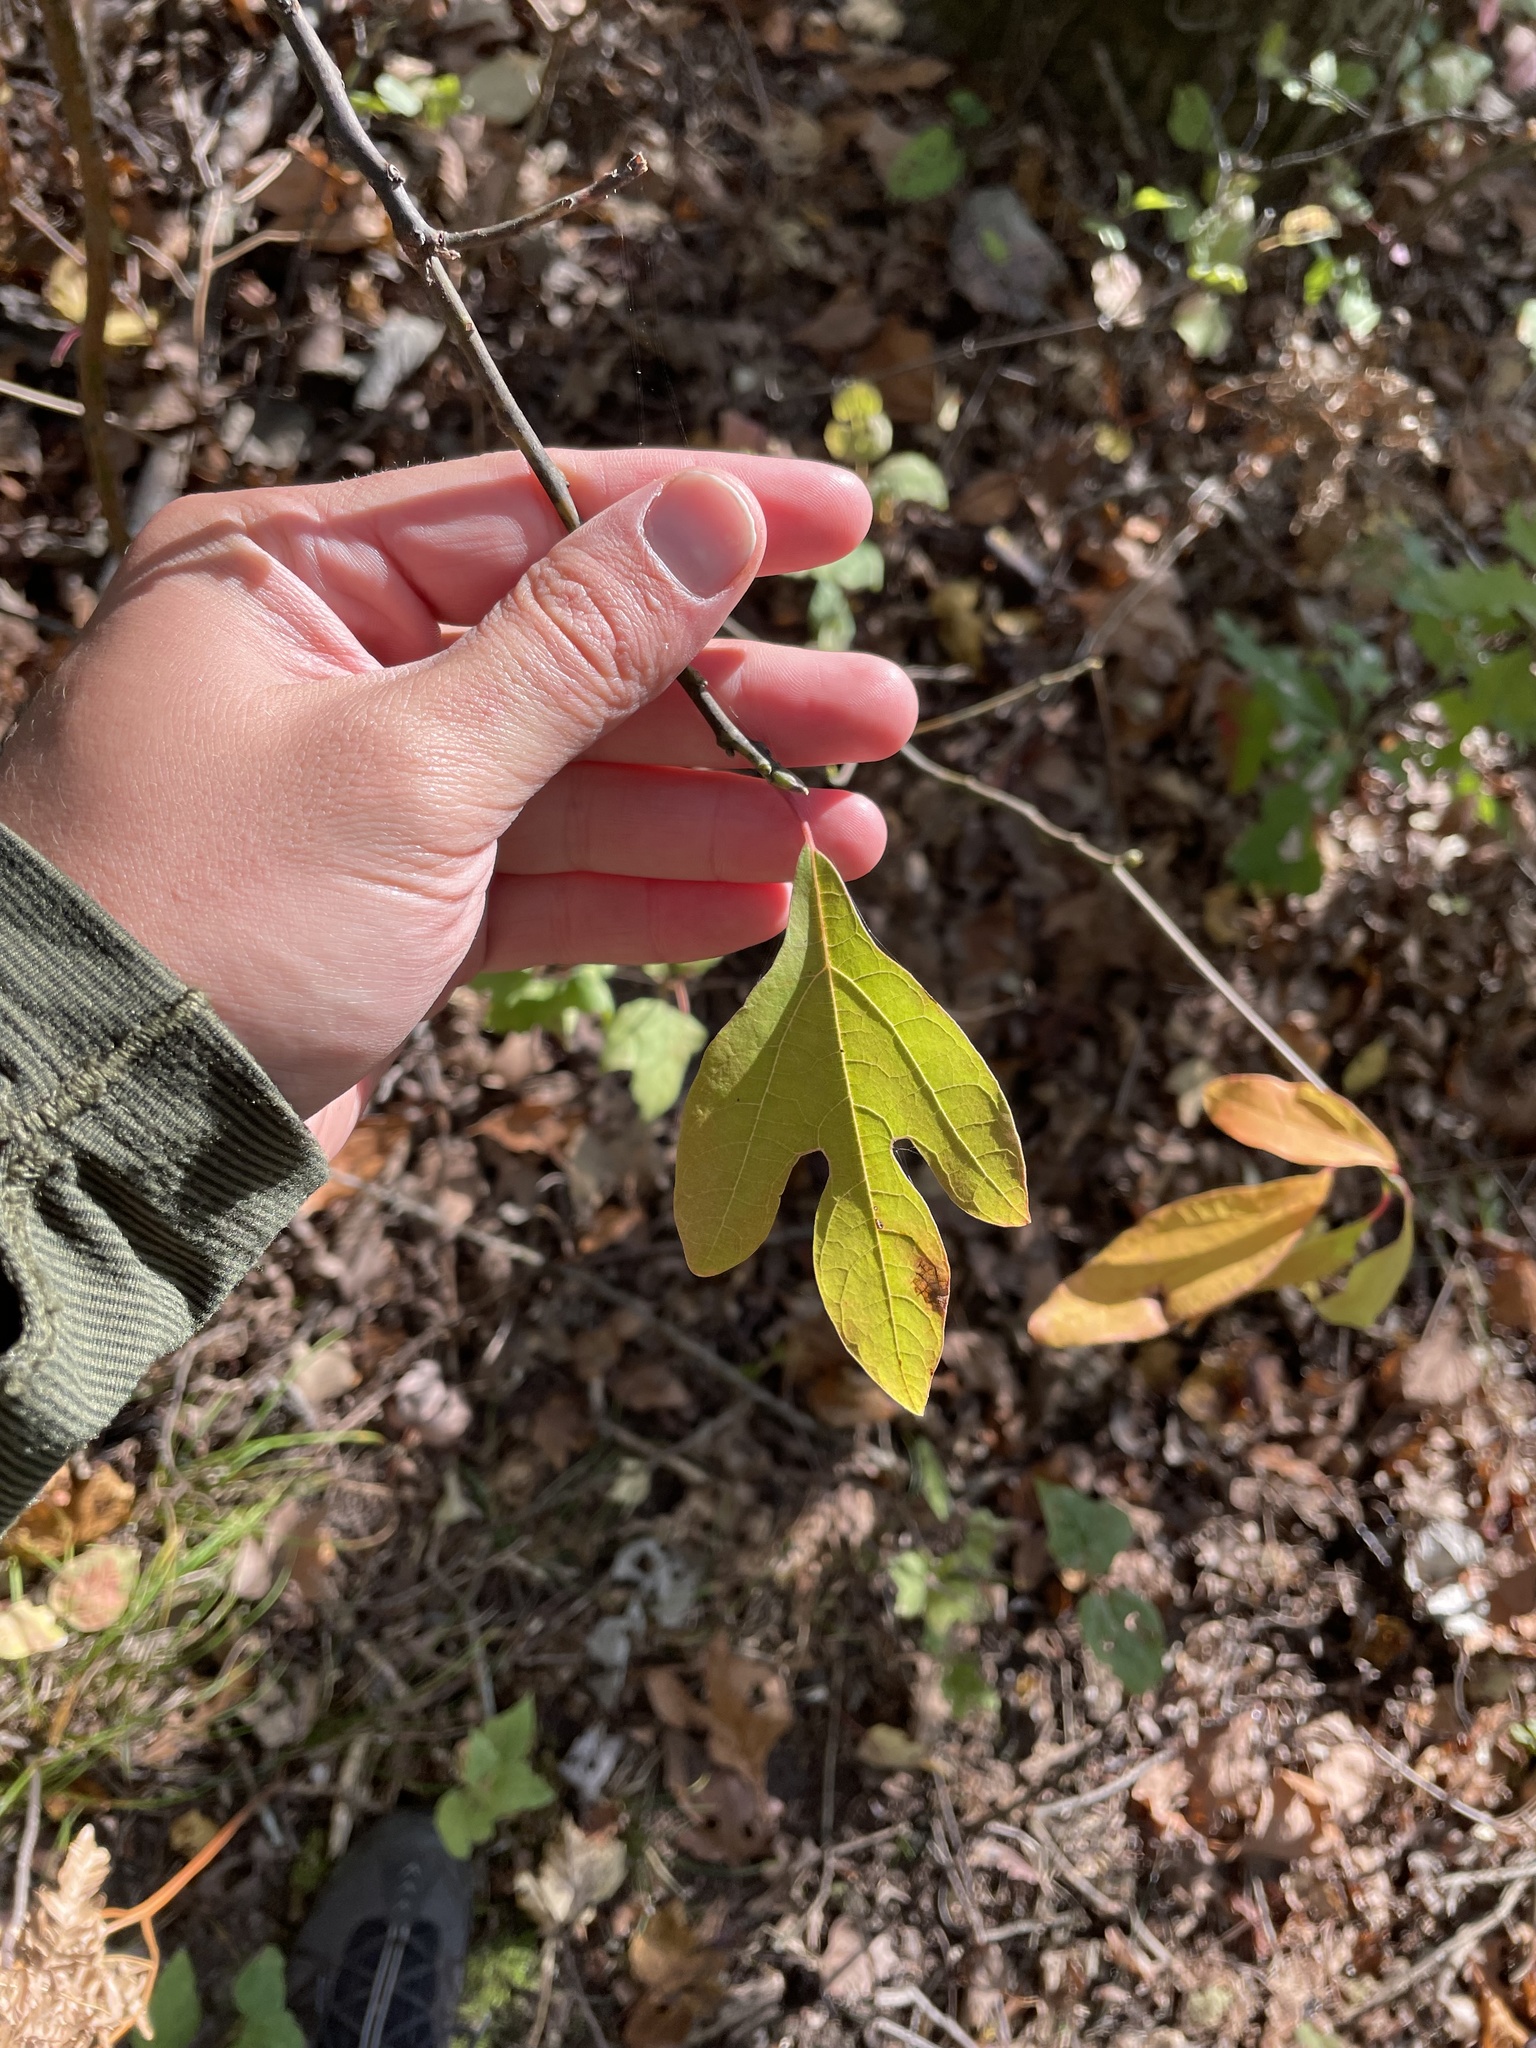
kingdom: Plantae
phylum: Tracheophyta
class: Magnoliopsida
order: Laurales
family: Lauraceae
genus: Sassafras
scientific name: Sassafras albidum
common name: Sassafras
